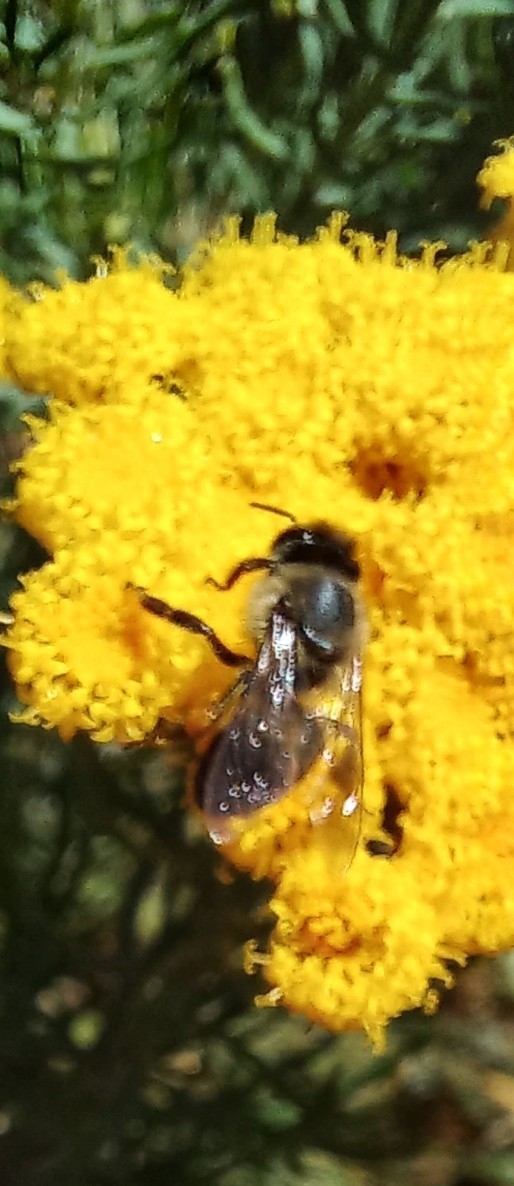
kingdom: Animalia
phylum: Arthropoda
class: Insecta
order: Hymenoptera
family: Apidae
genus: Apis
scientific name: Apis mellifera
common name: Honey bee
